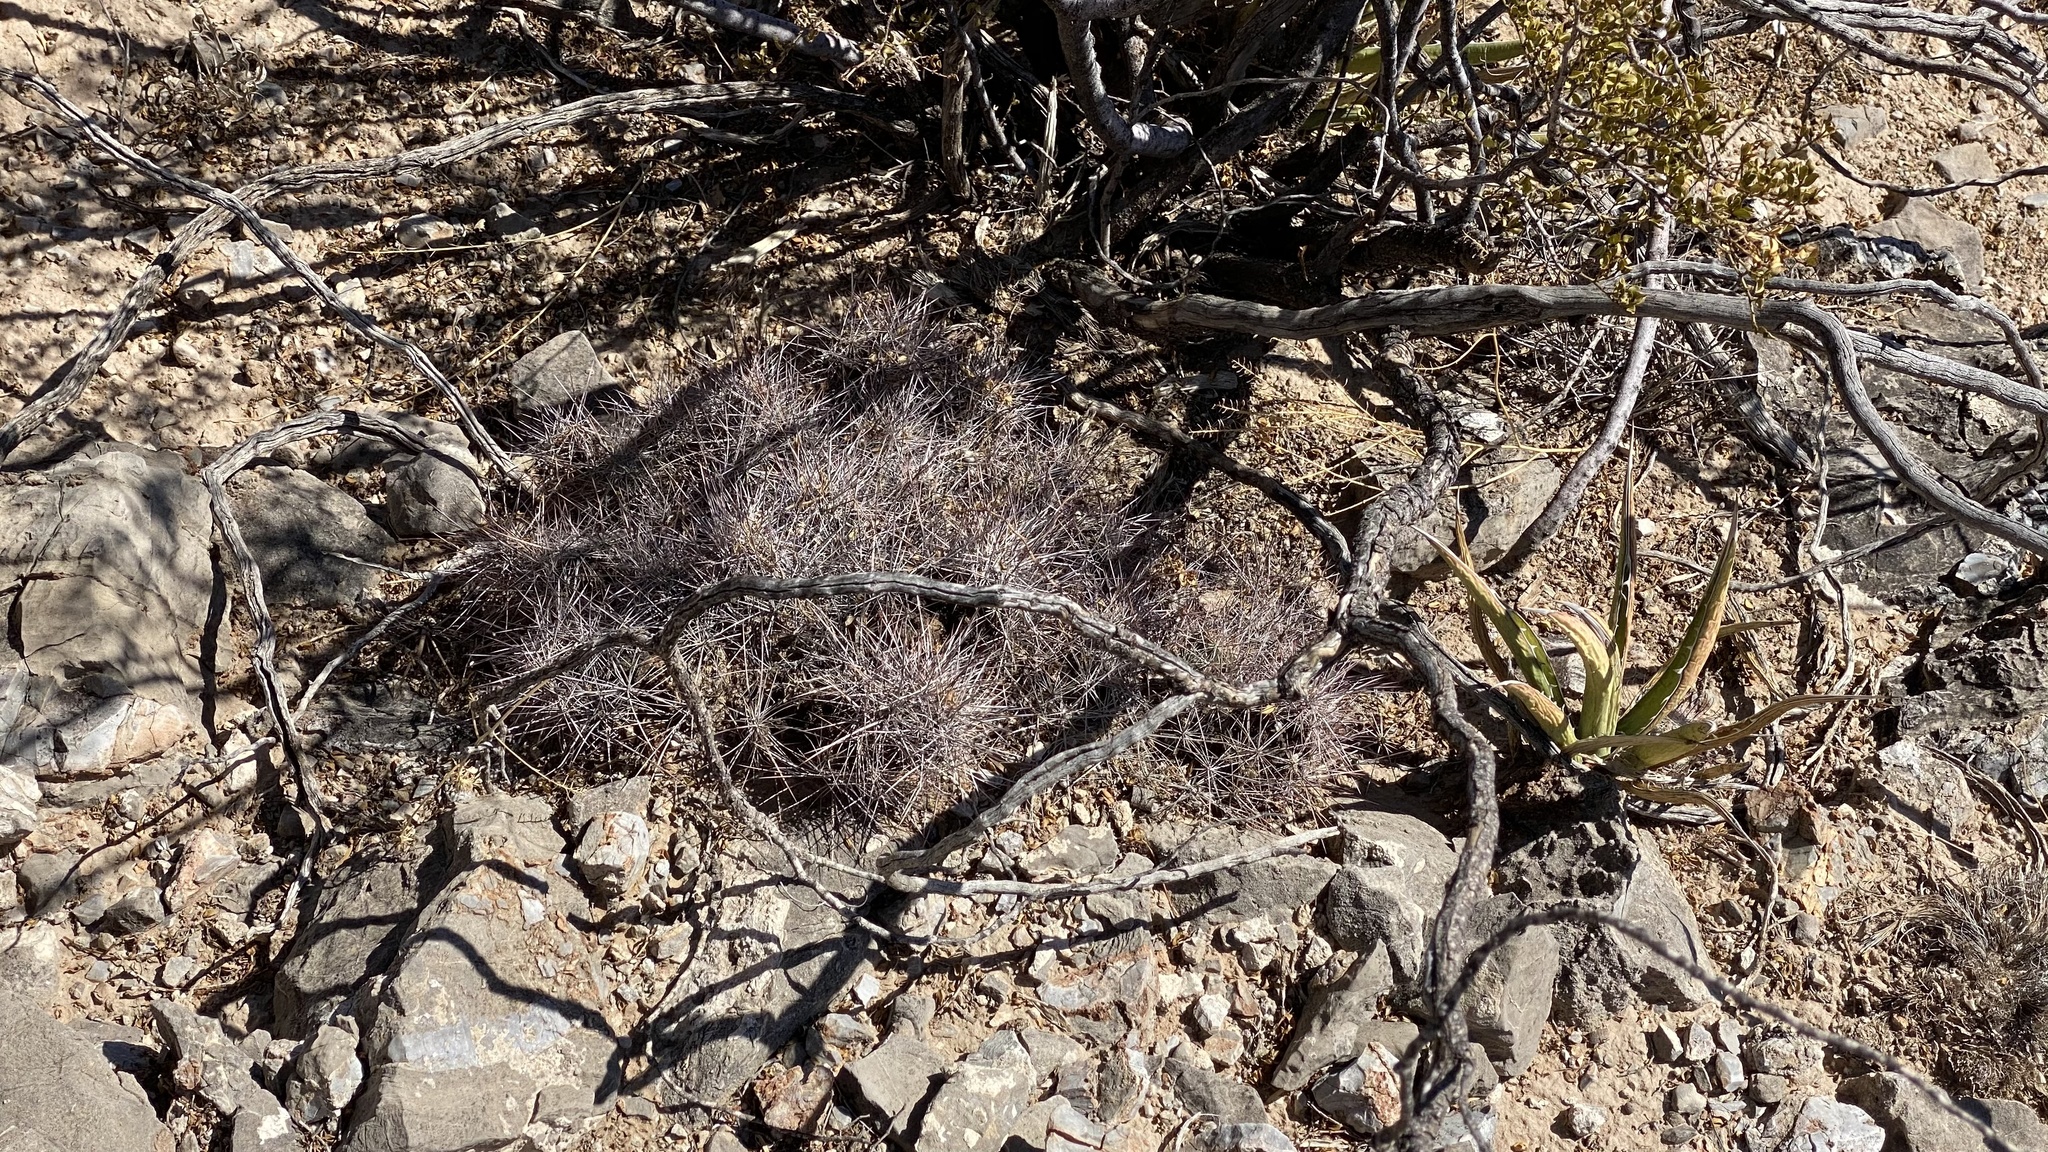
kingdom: Plantae
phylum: Tracheophyta
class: Magnoliopsida
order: Caryophyllales
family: Cactaceae
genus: Coryphantha
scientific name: Coryphantha macromeris
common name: Nipple beehive cactus
